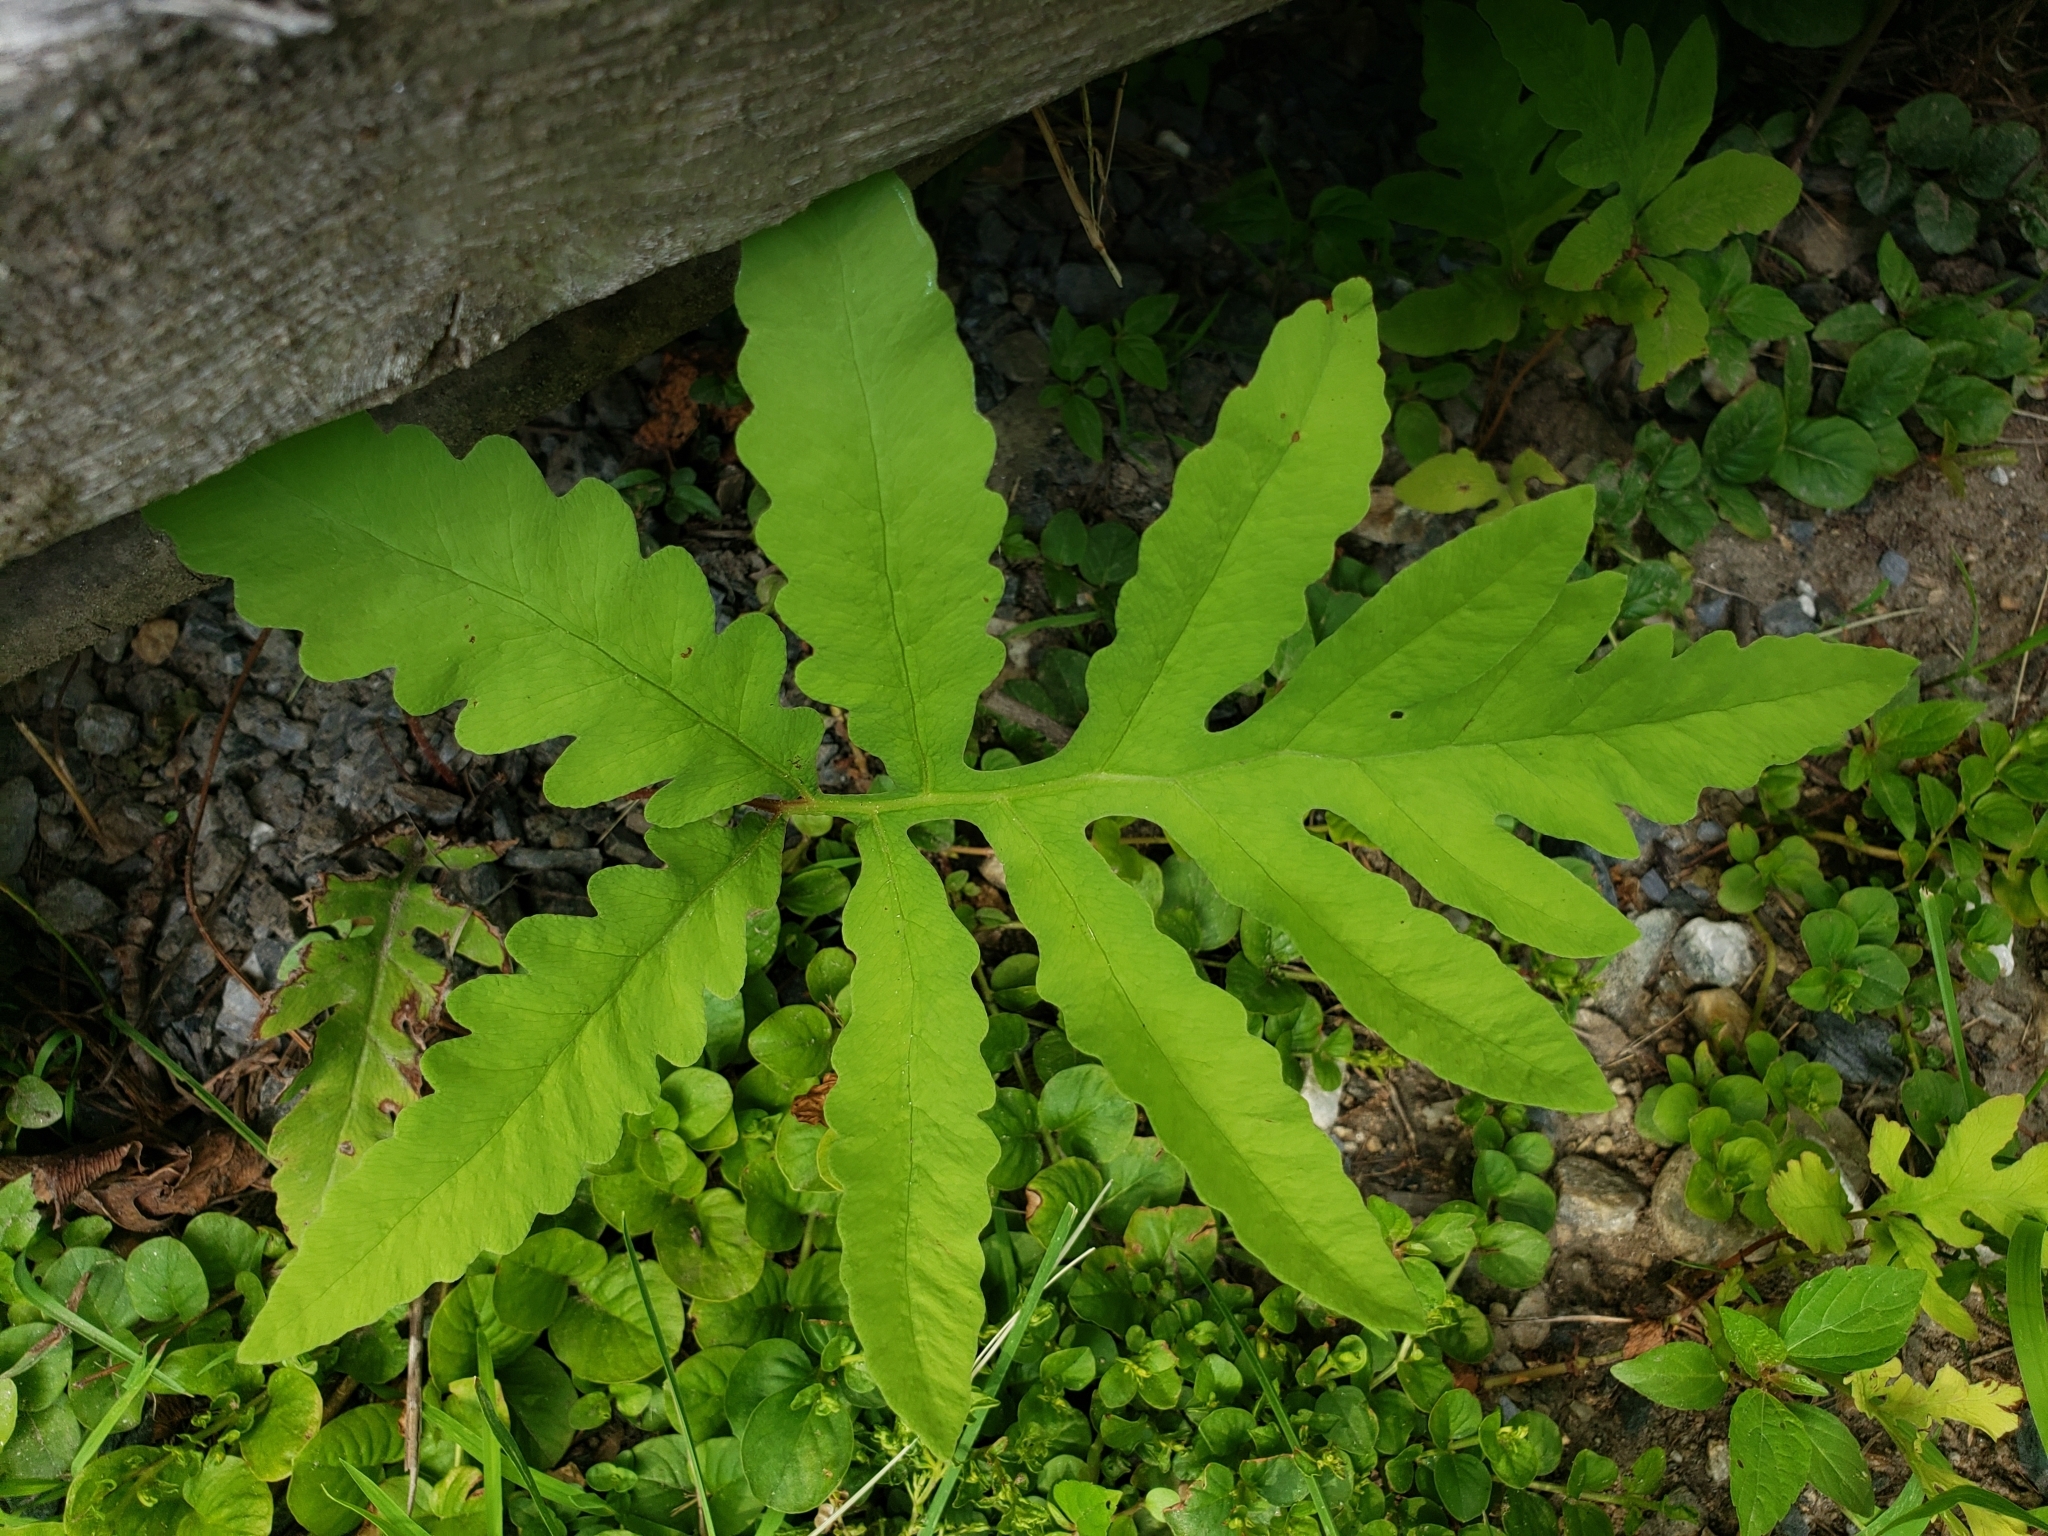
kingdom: Plantae
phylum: Tracheophyta
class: Polypodiopsida
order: Polypodiales
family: Onocleaceae
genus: Onoclea
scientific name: Onoclea sensibilis
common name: Sensitive fern
